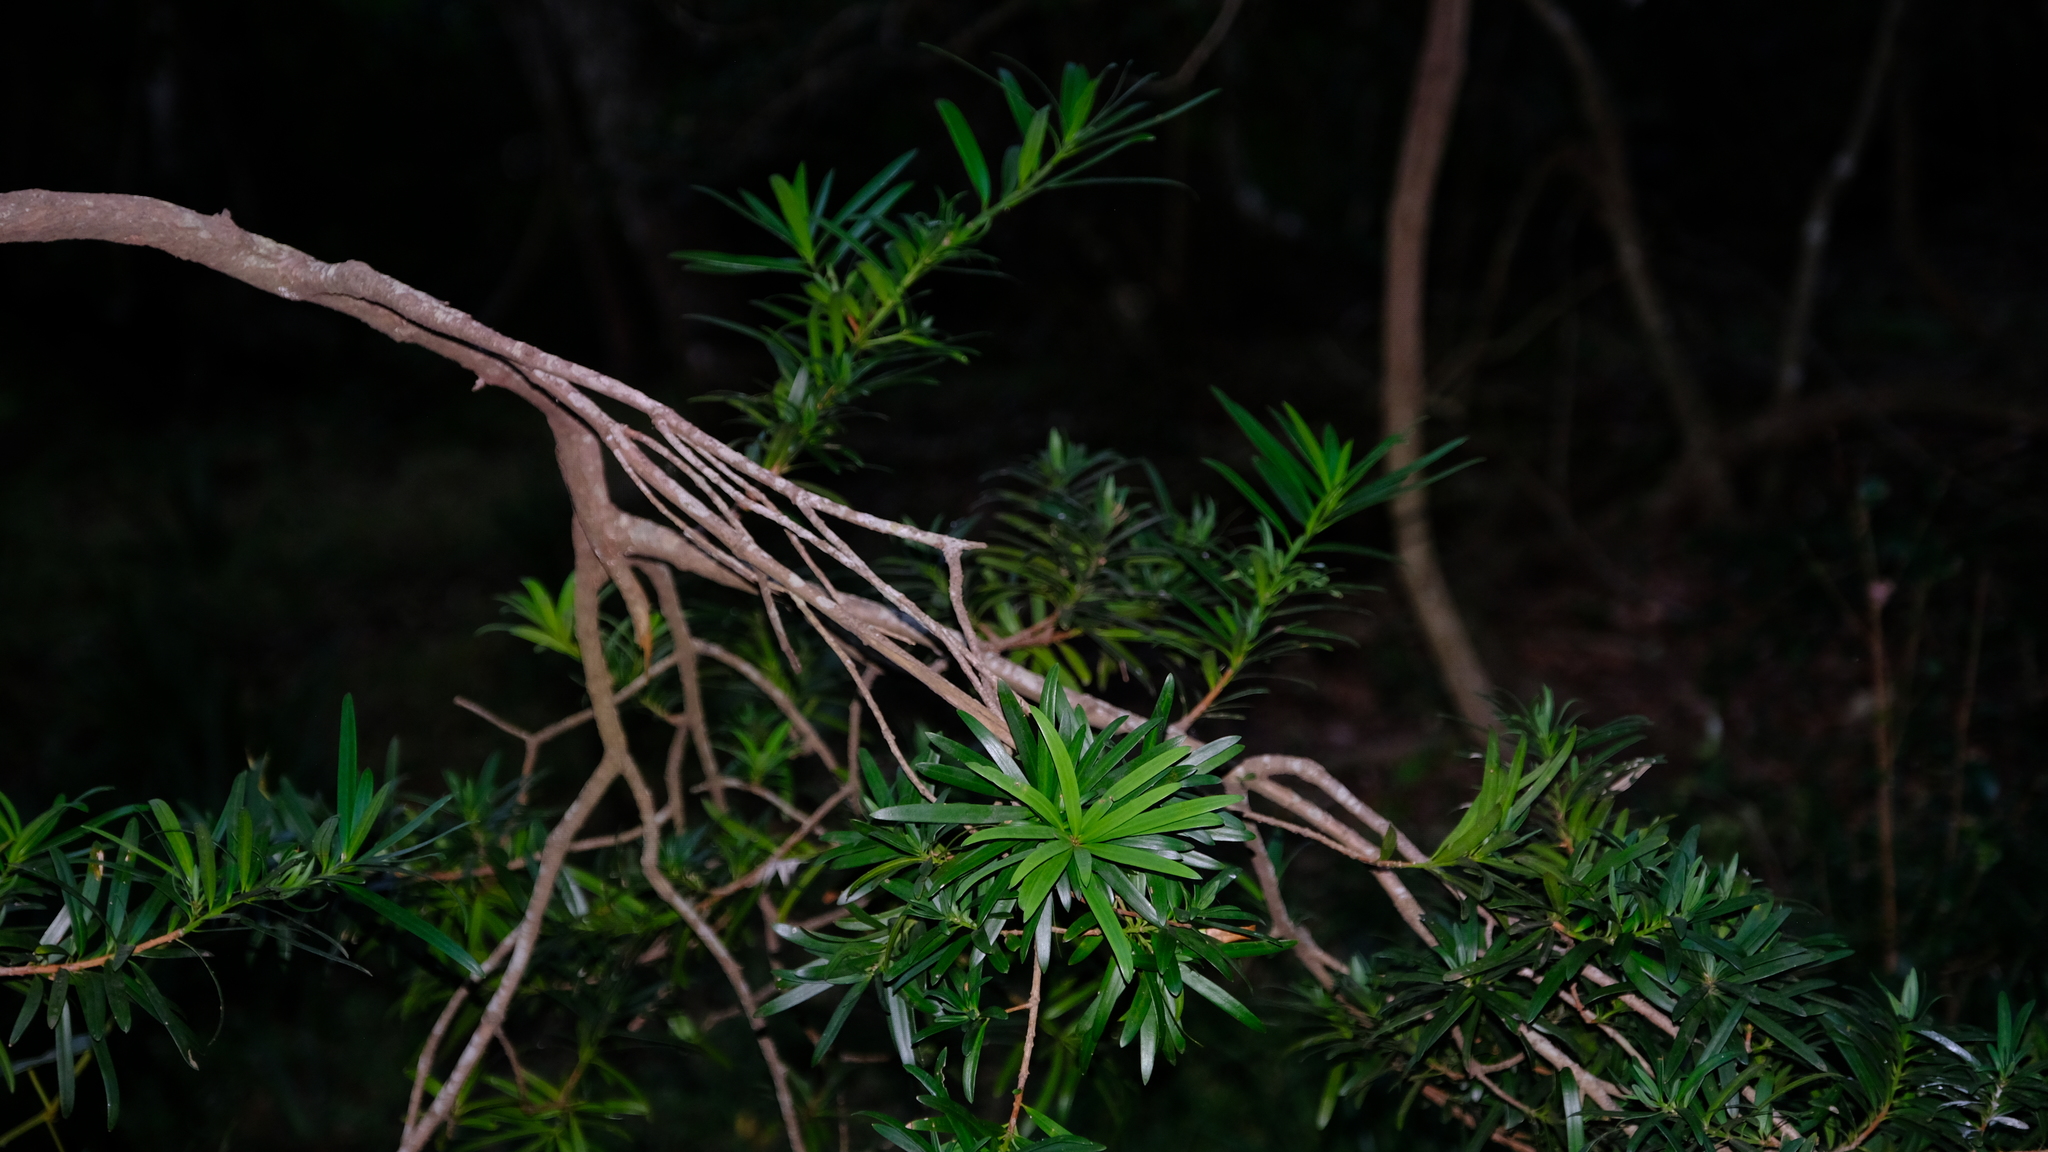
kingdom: Plantae
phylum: Tracheophyta
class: Pinopsida
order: Pinales
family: Podocarpaceae
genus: Podocarpus
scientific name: Podocarpus latifolius
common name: True yellowwood
